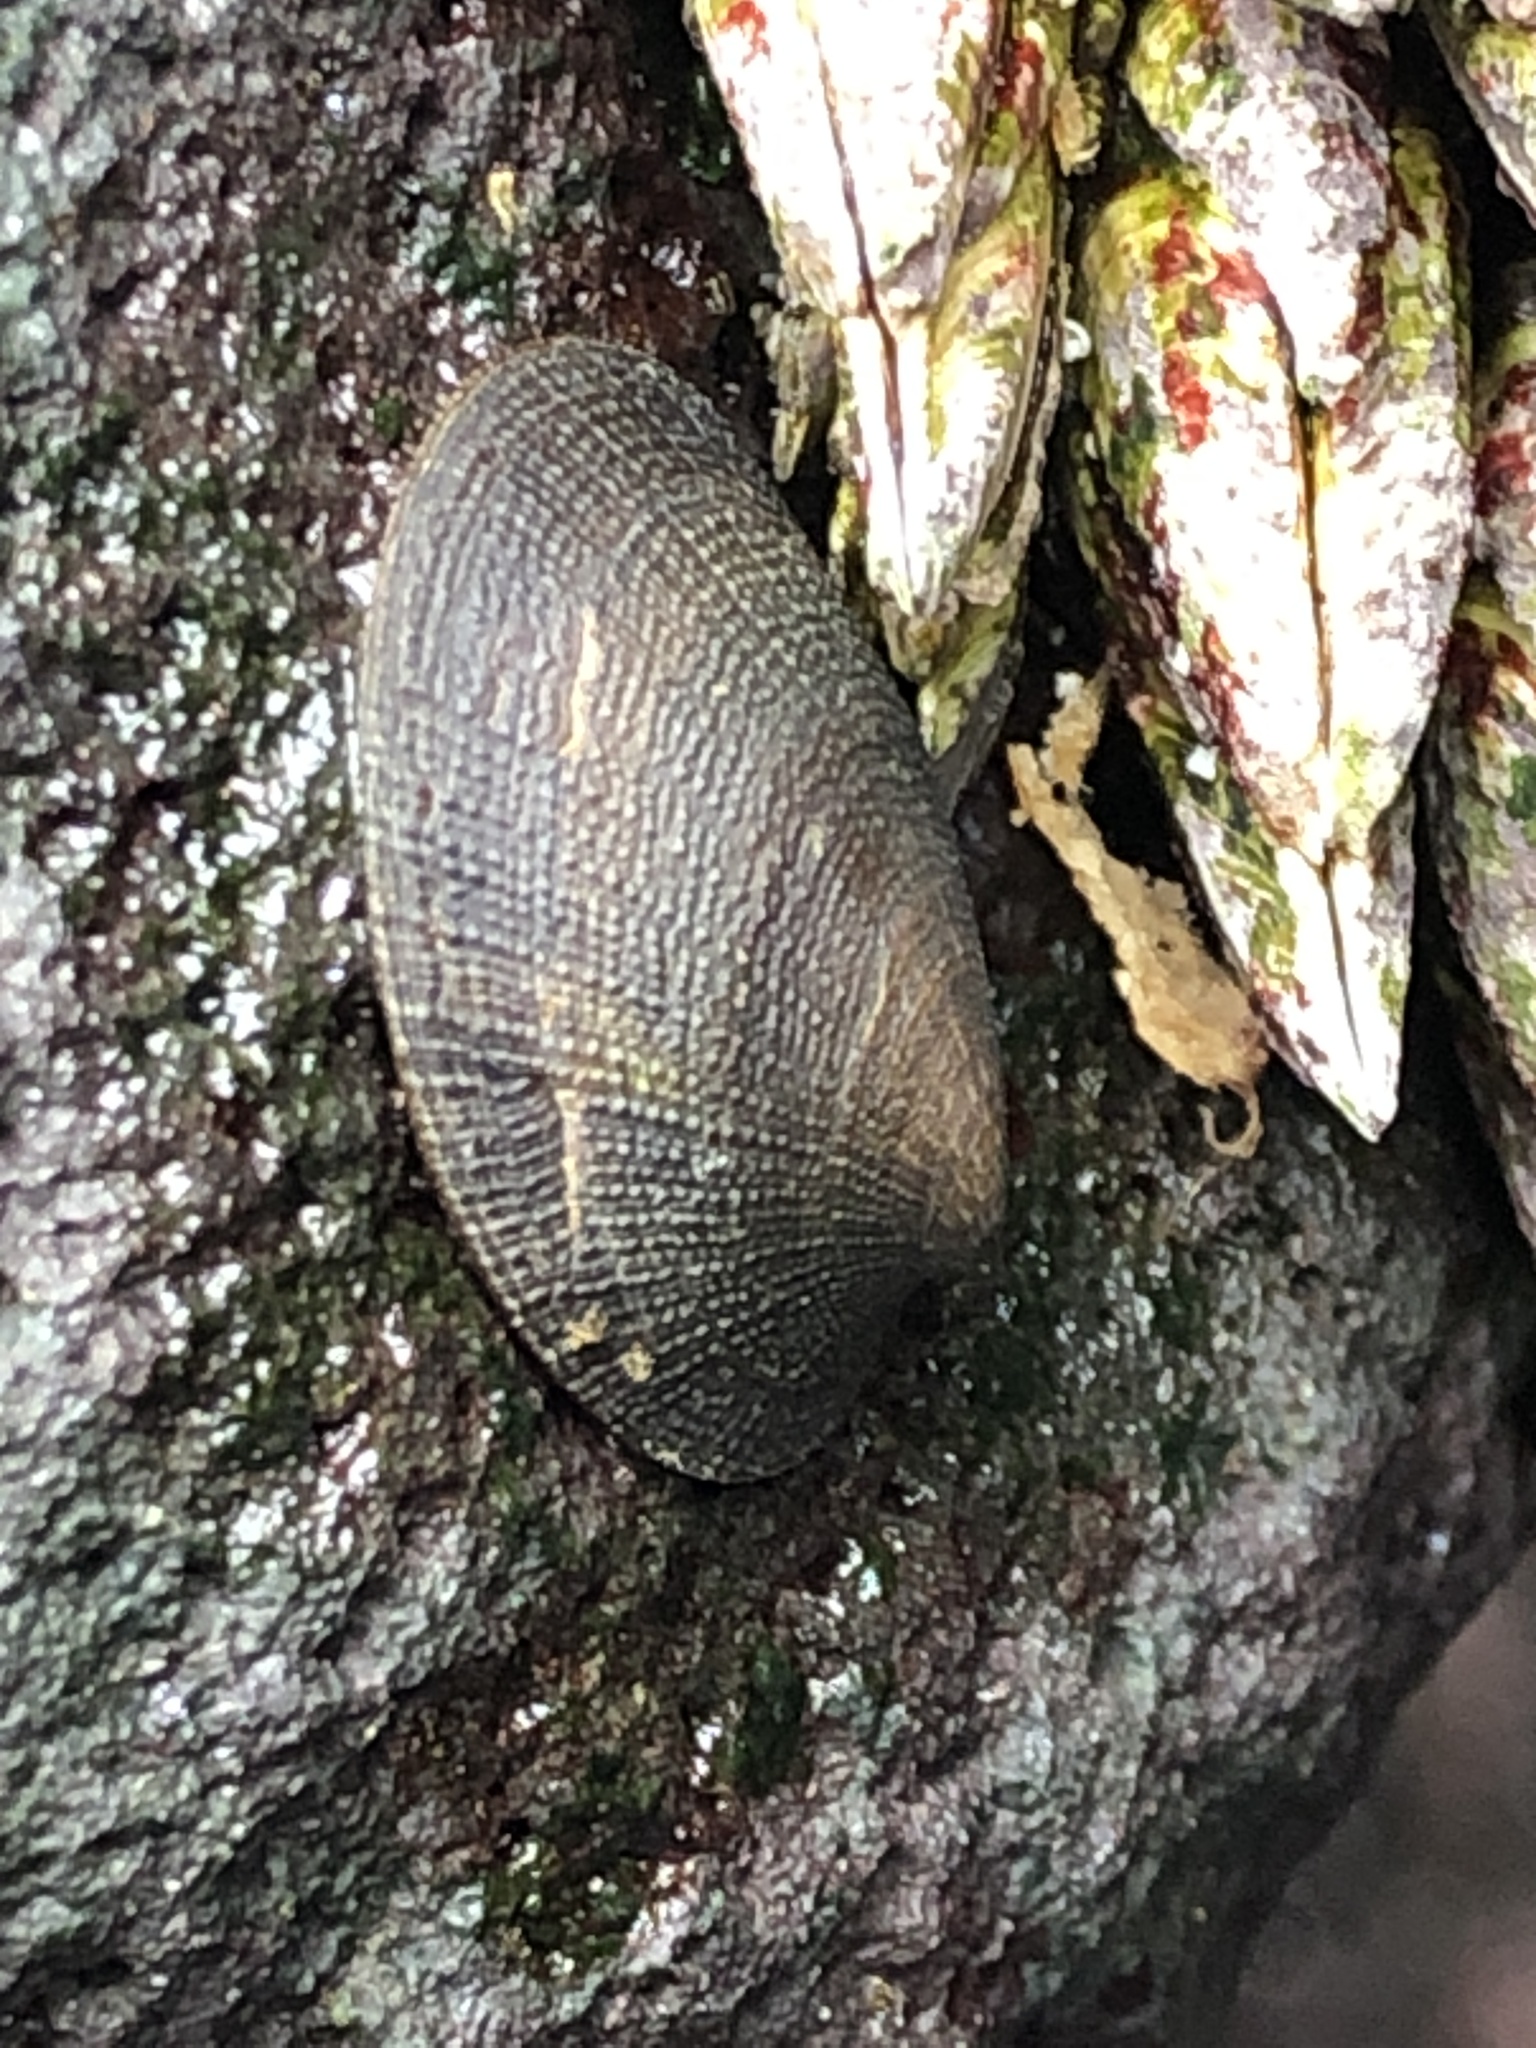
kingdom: Animalia
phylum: Mollusca
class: Gastropoda
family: Lottiidae
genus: Nipponacmea
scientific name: Nipponacmea concinna
